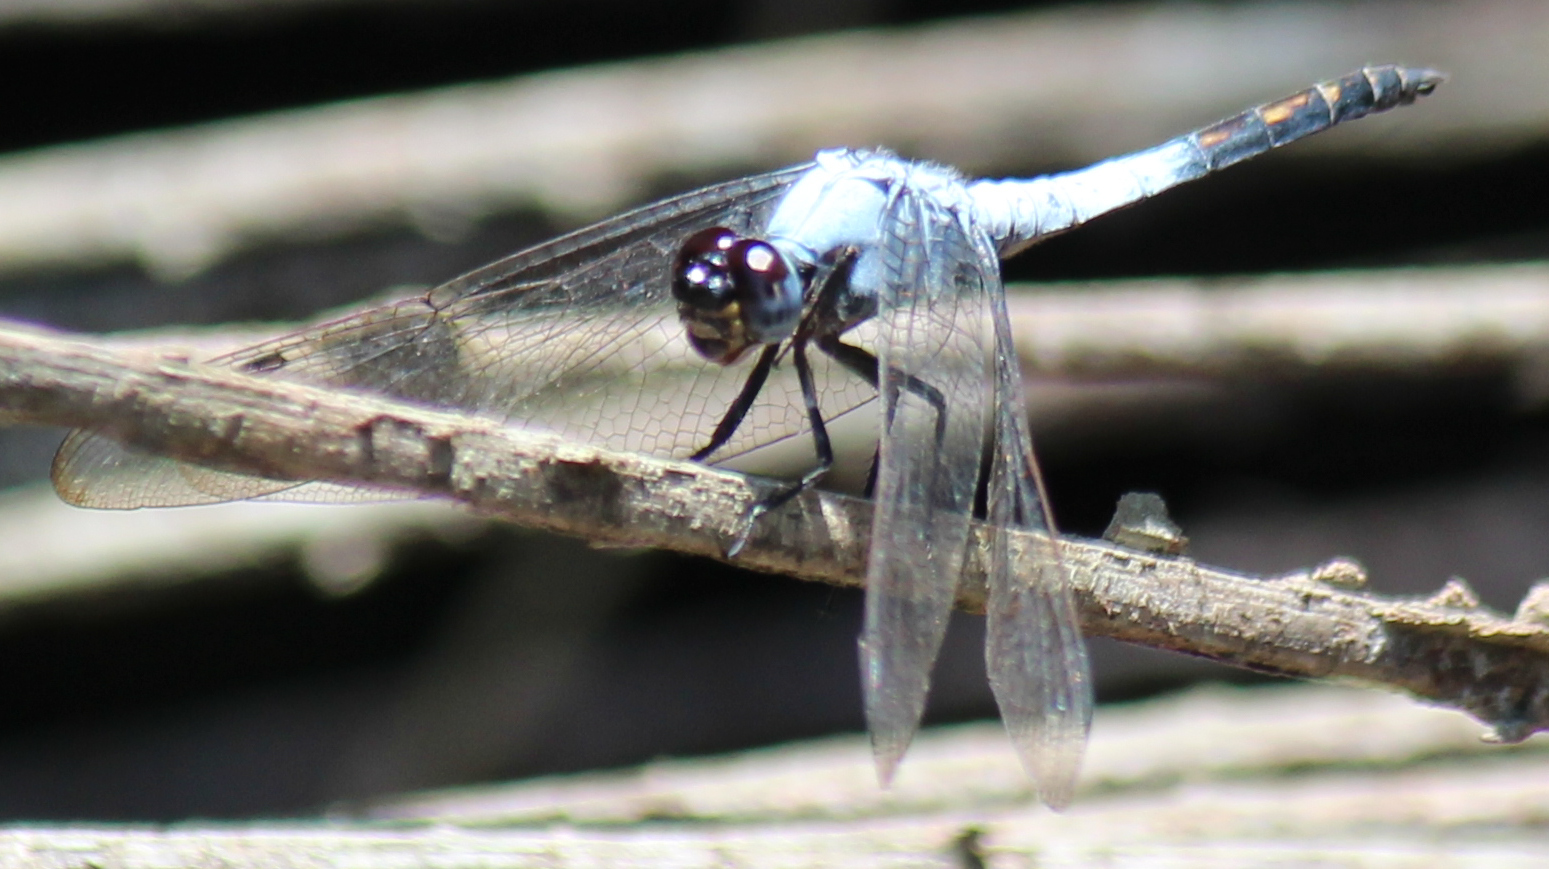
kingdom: Animalia
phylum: Arthropoda
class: Insecta
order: Odonata
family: Libellulidae
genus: Nesciothemis
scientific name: Nesciothemis farinosa
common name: Eastern blacktail
